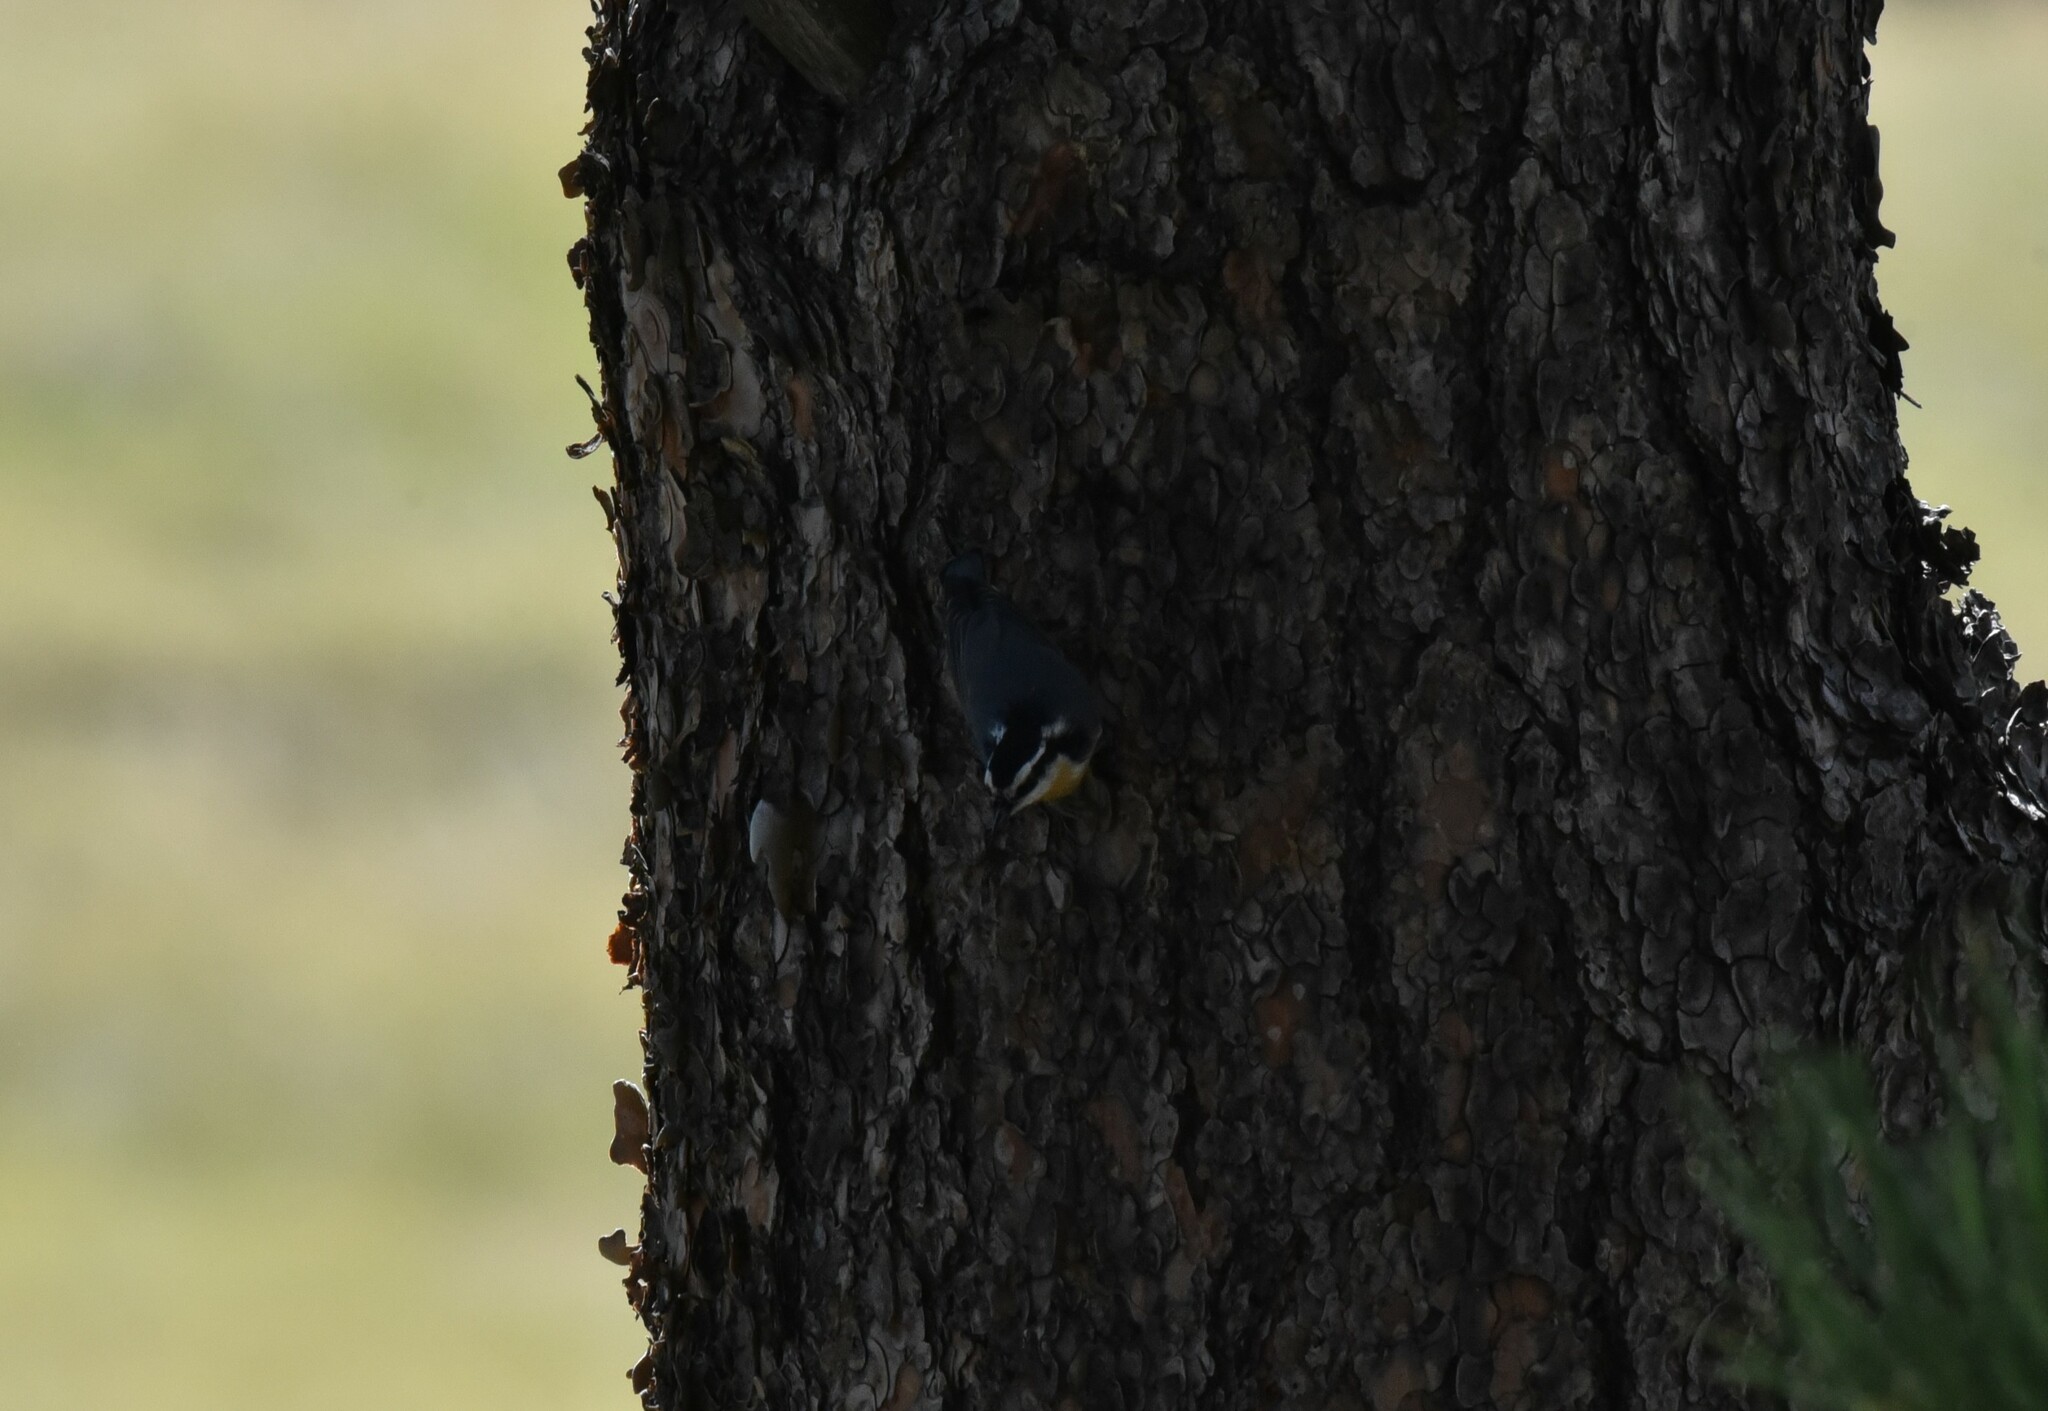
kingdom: Animalia
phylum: Chordata
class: Aves
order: Passeriformes
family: Sittidae
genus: Sitta
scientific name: Sitta canadensis
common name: Red-breasted nuthatch
